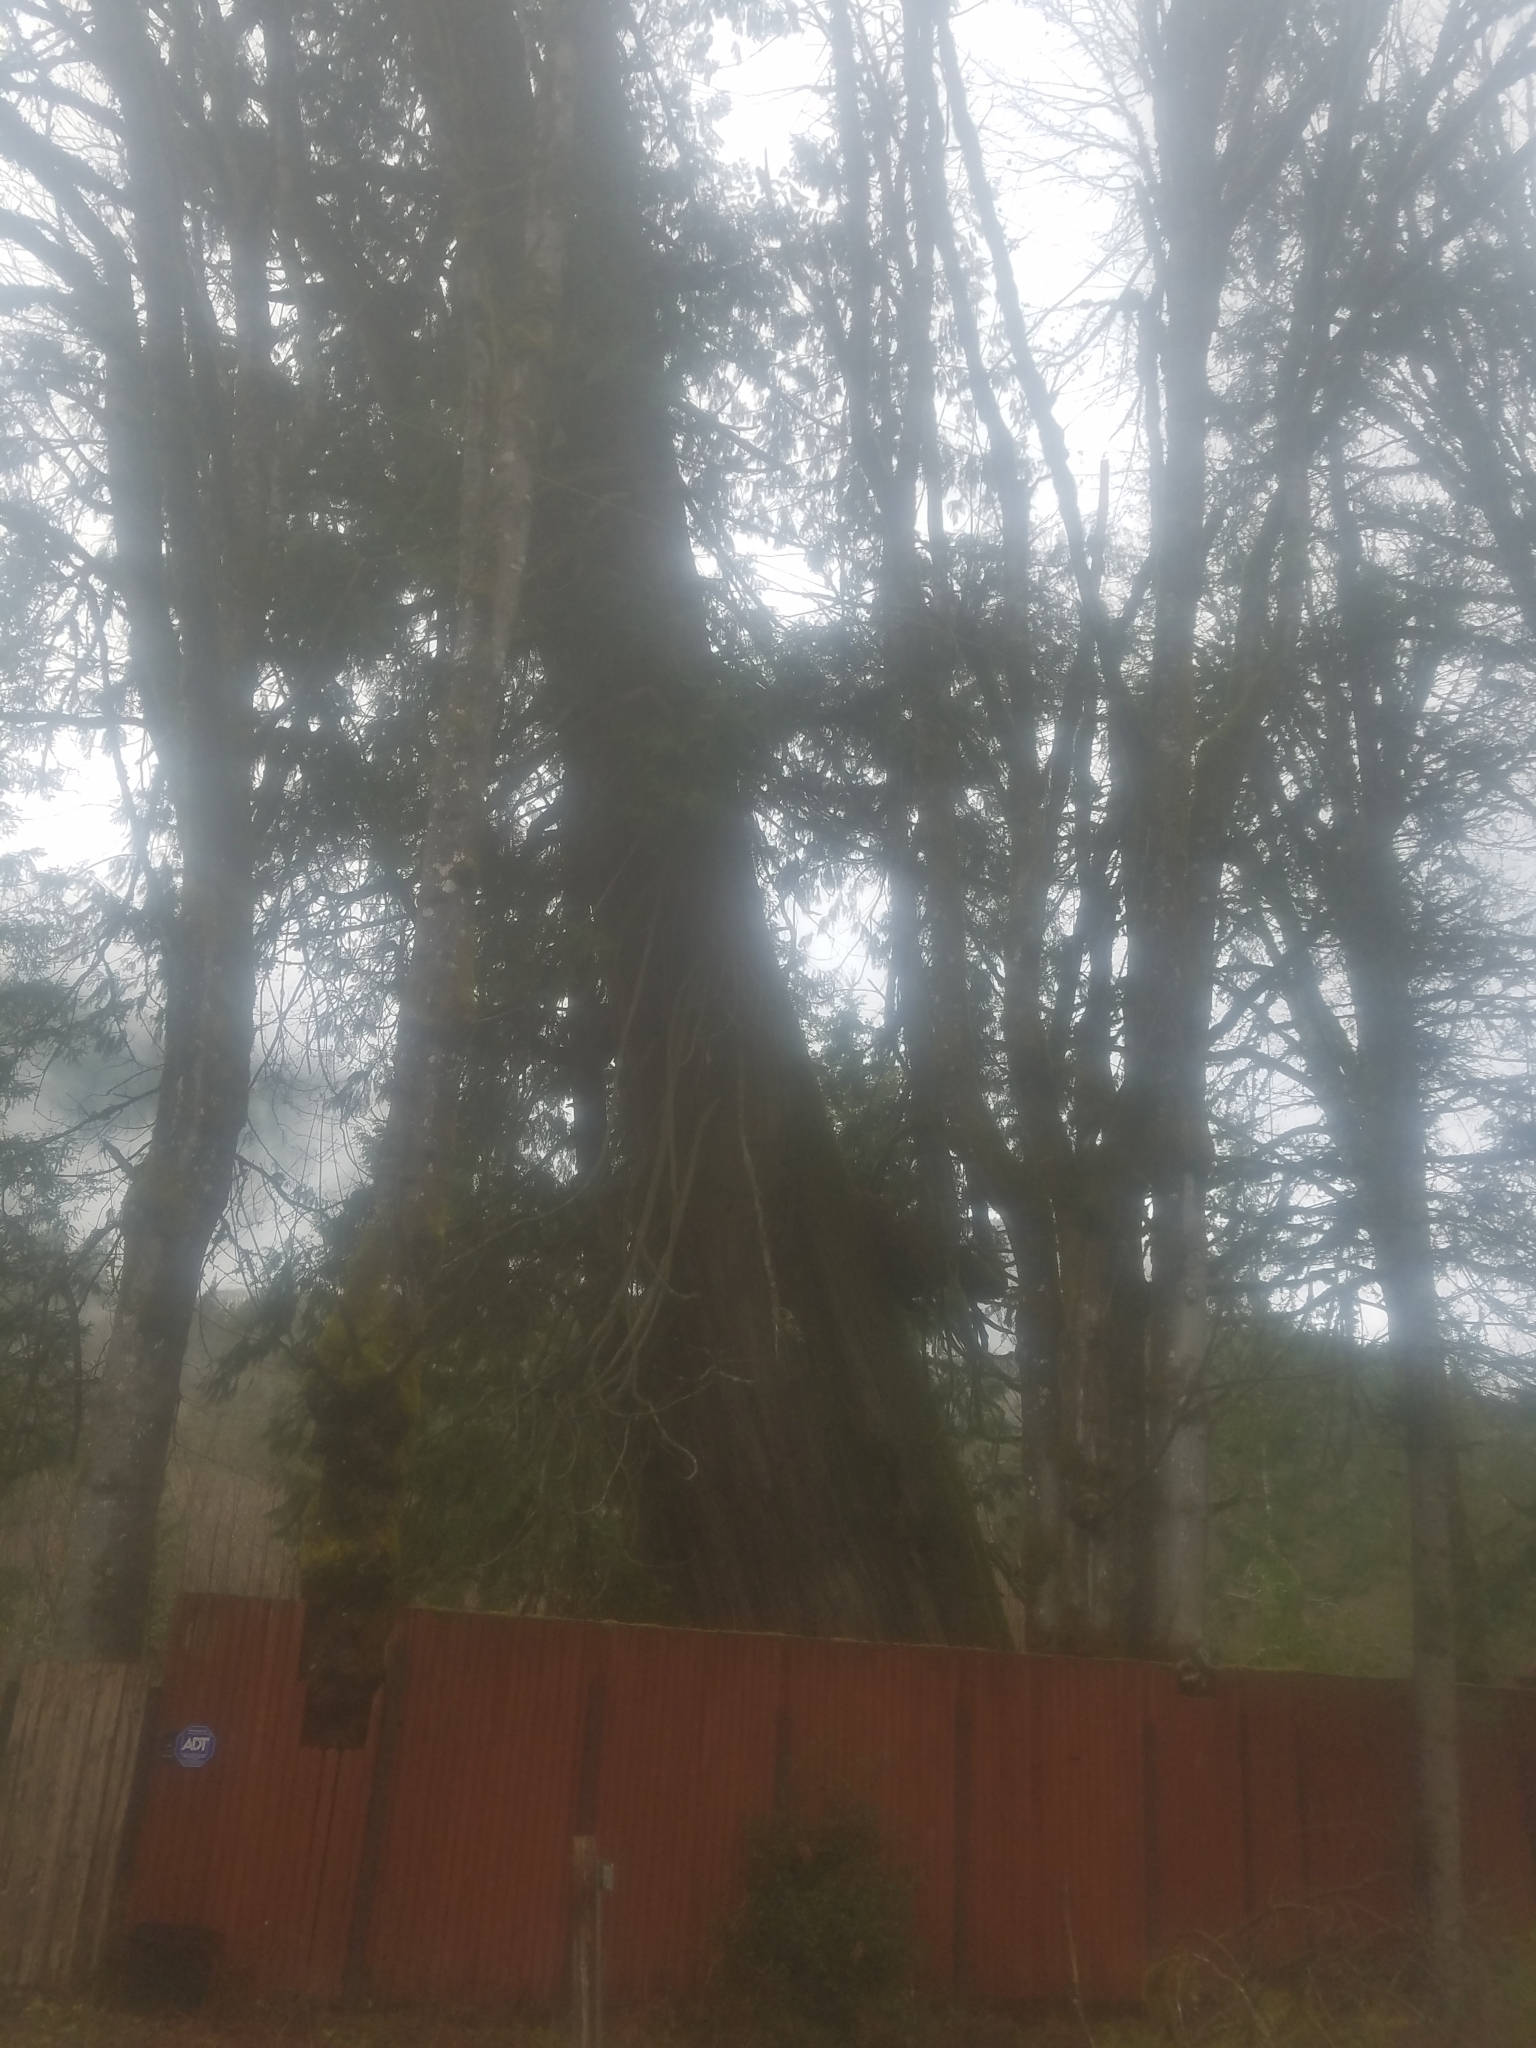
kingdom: Plantae
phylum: Tracheophyta
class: Pinopsida
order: Pinales
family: Cupressaceae
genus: Thuja
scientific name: Thuja plicata
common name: Western red-cedar
